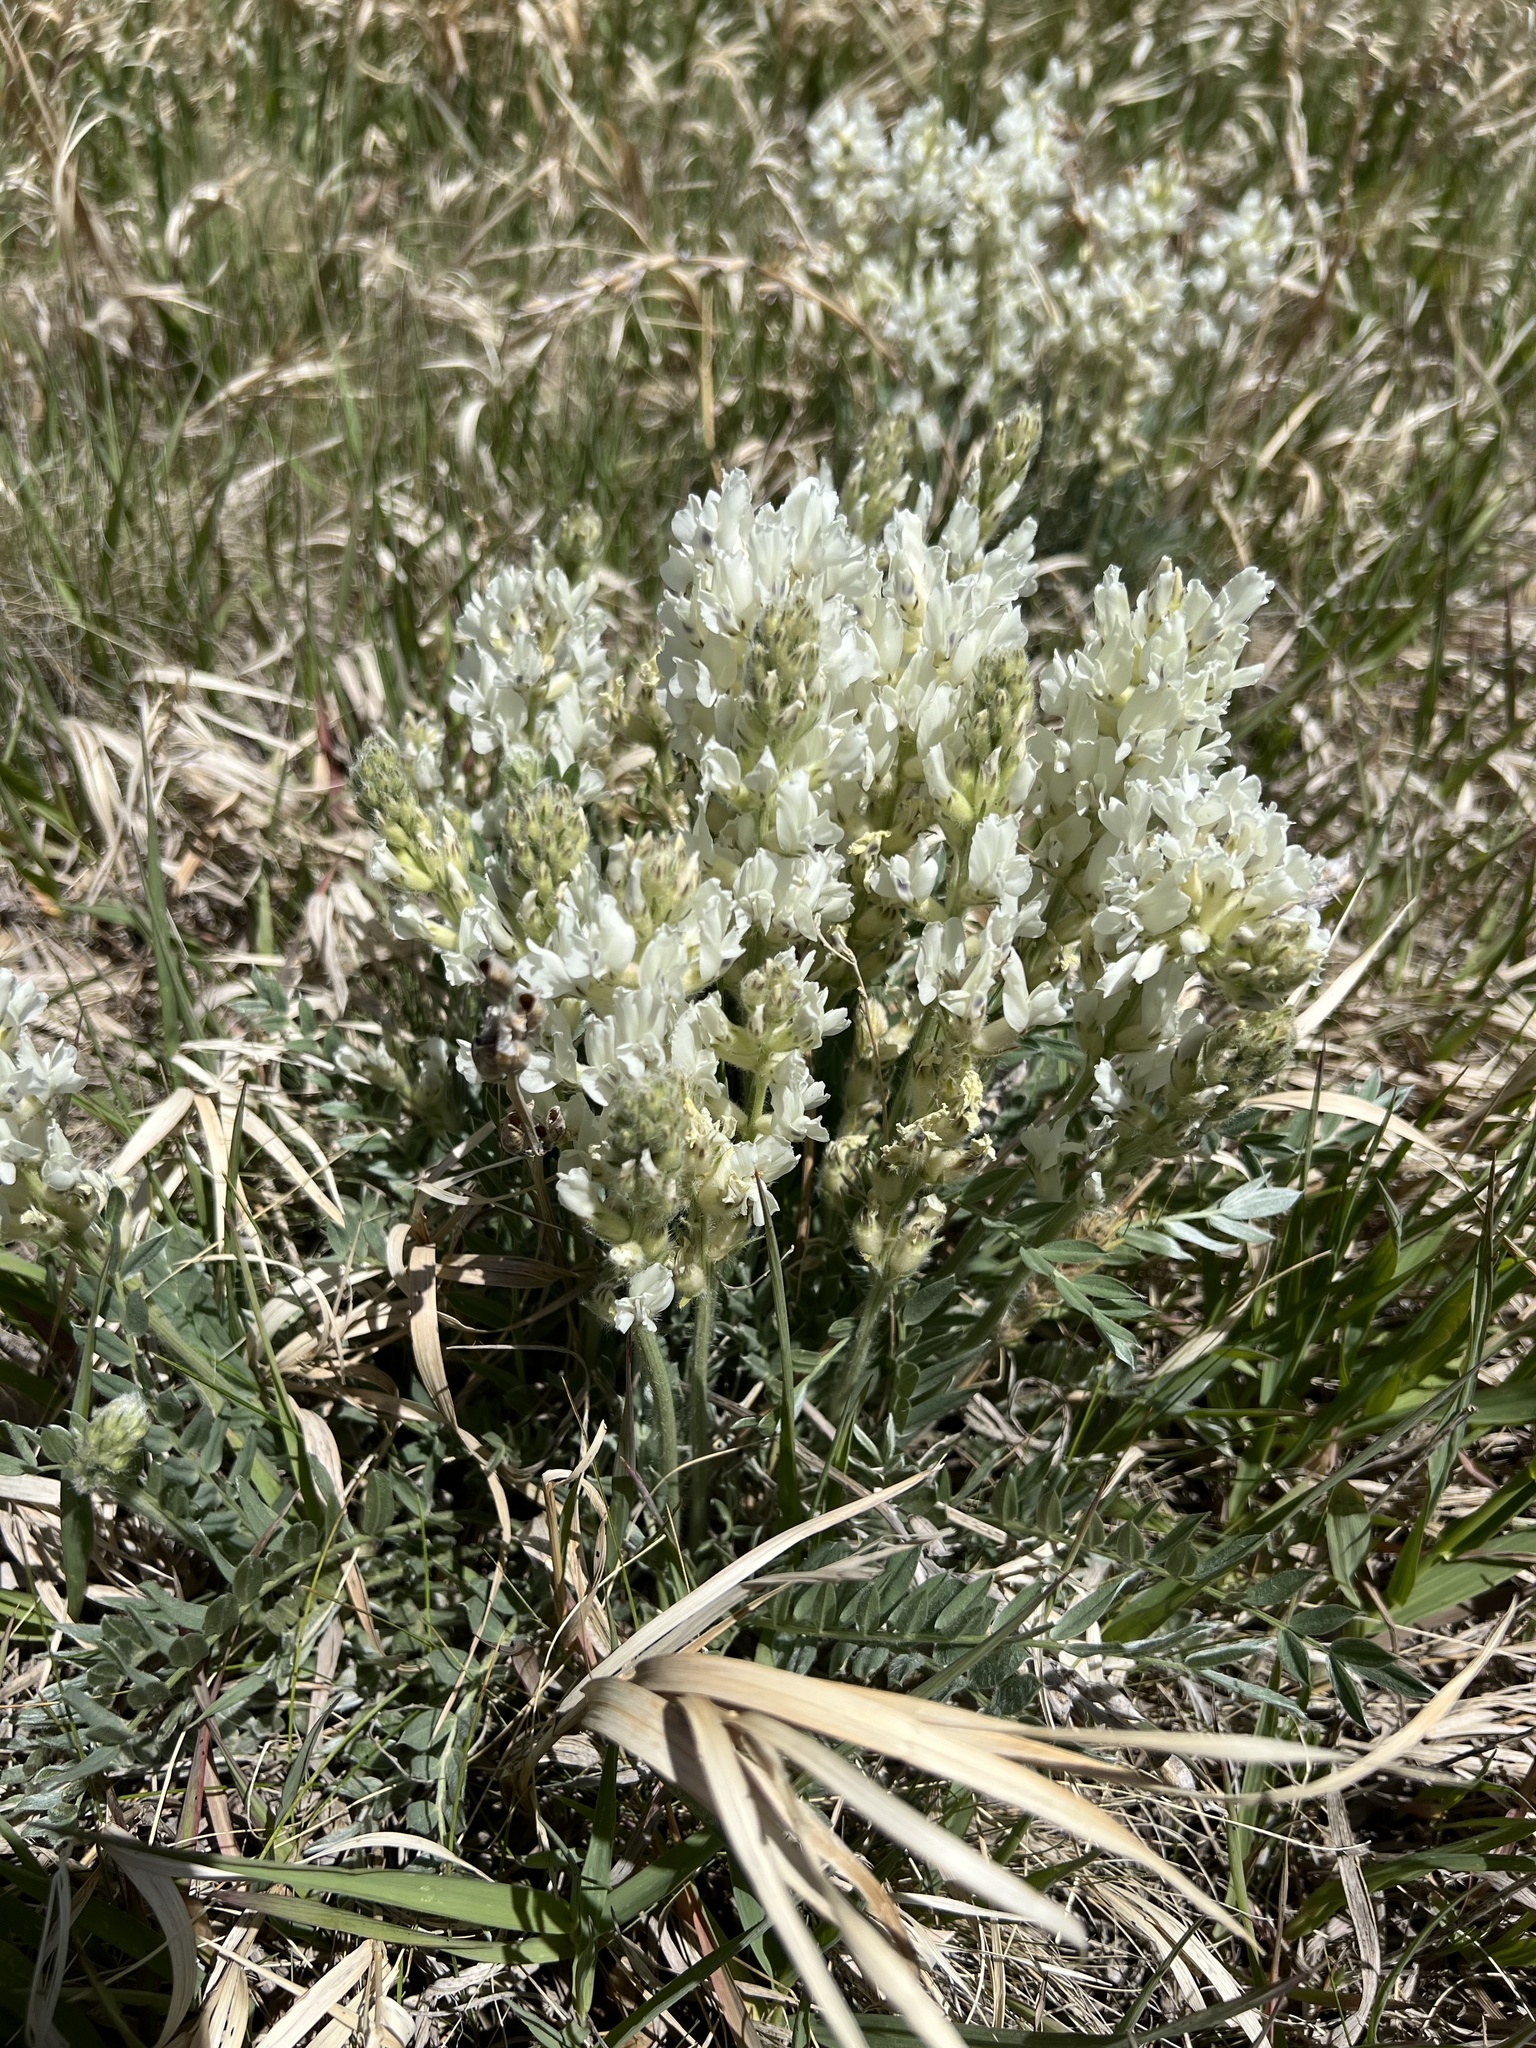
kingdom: Plantae
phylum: Tracheophyta
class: Magnoliopsida
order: Fabales
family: Fabaceae
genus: Oxytropis
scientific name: Oxytropis sericea
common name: Silky locoweed
